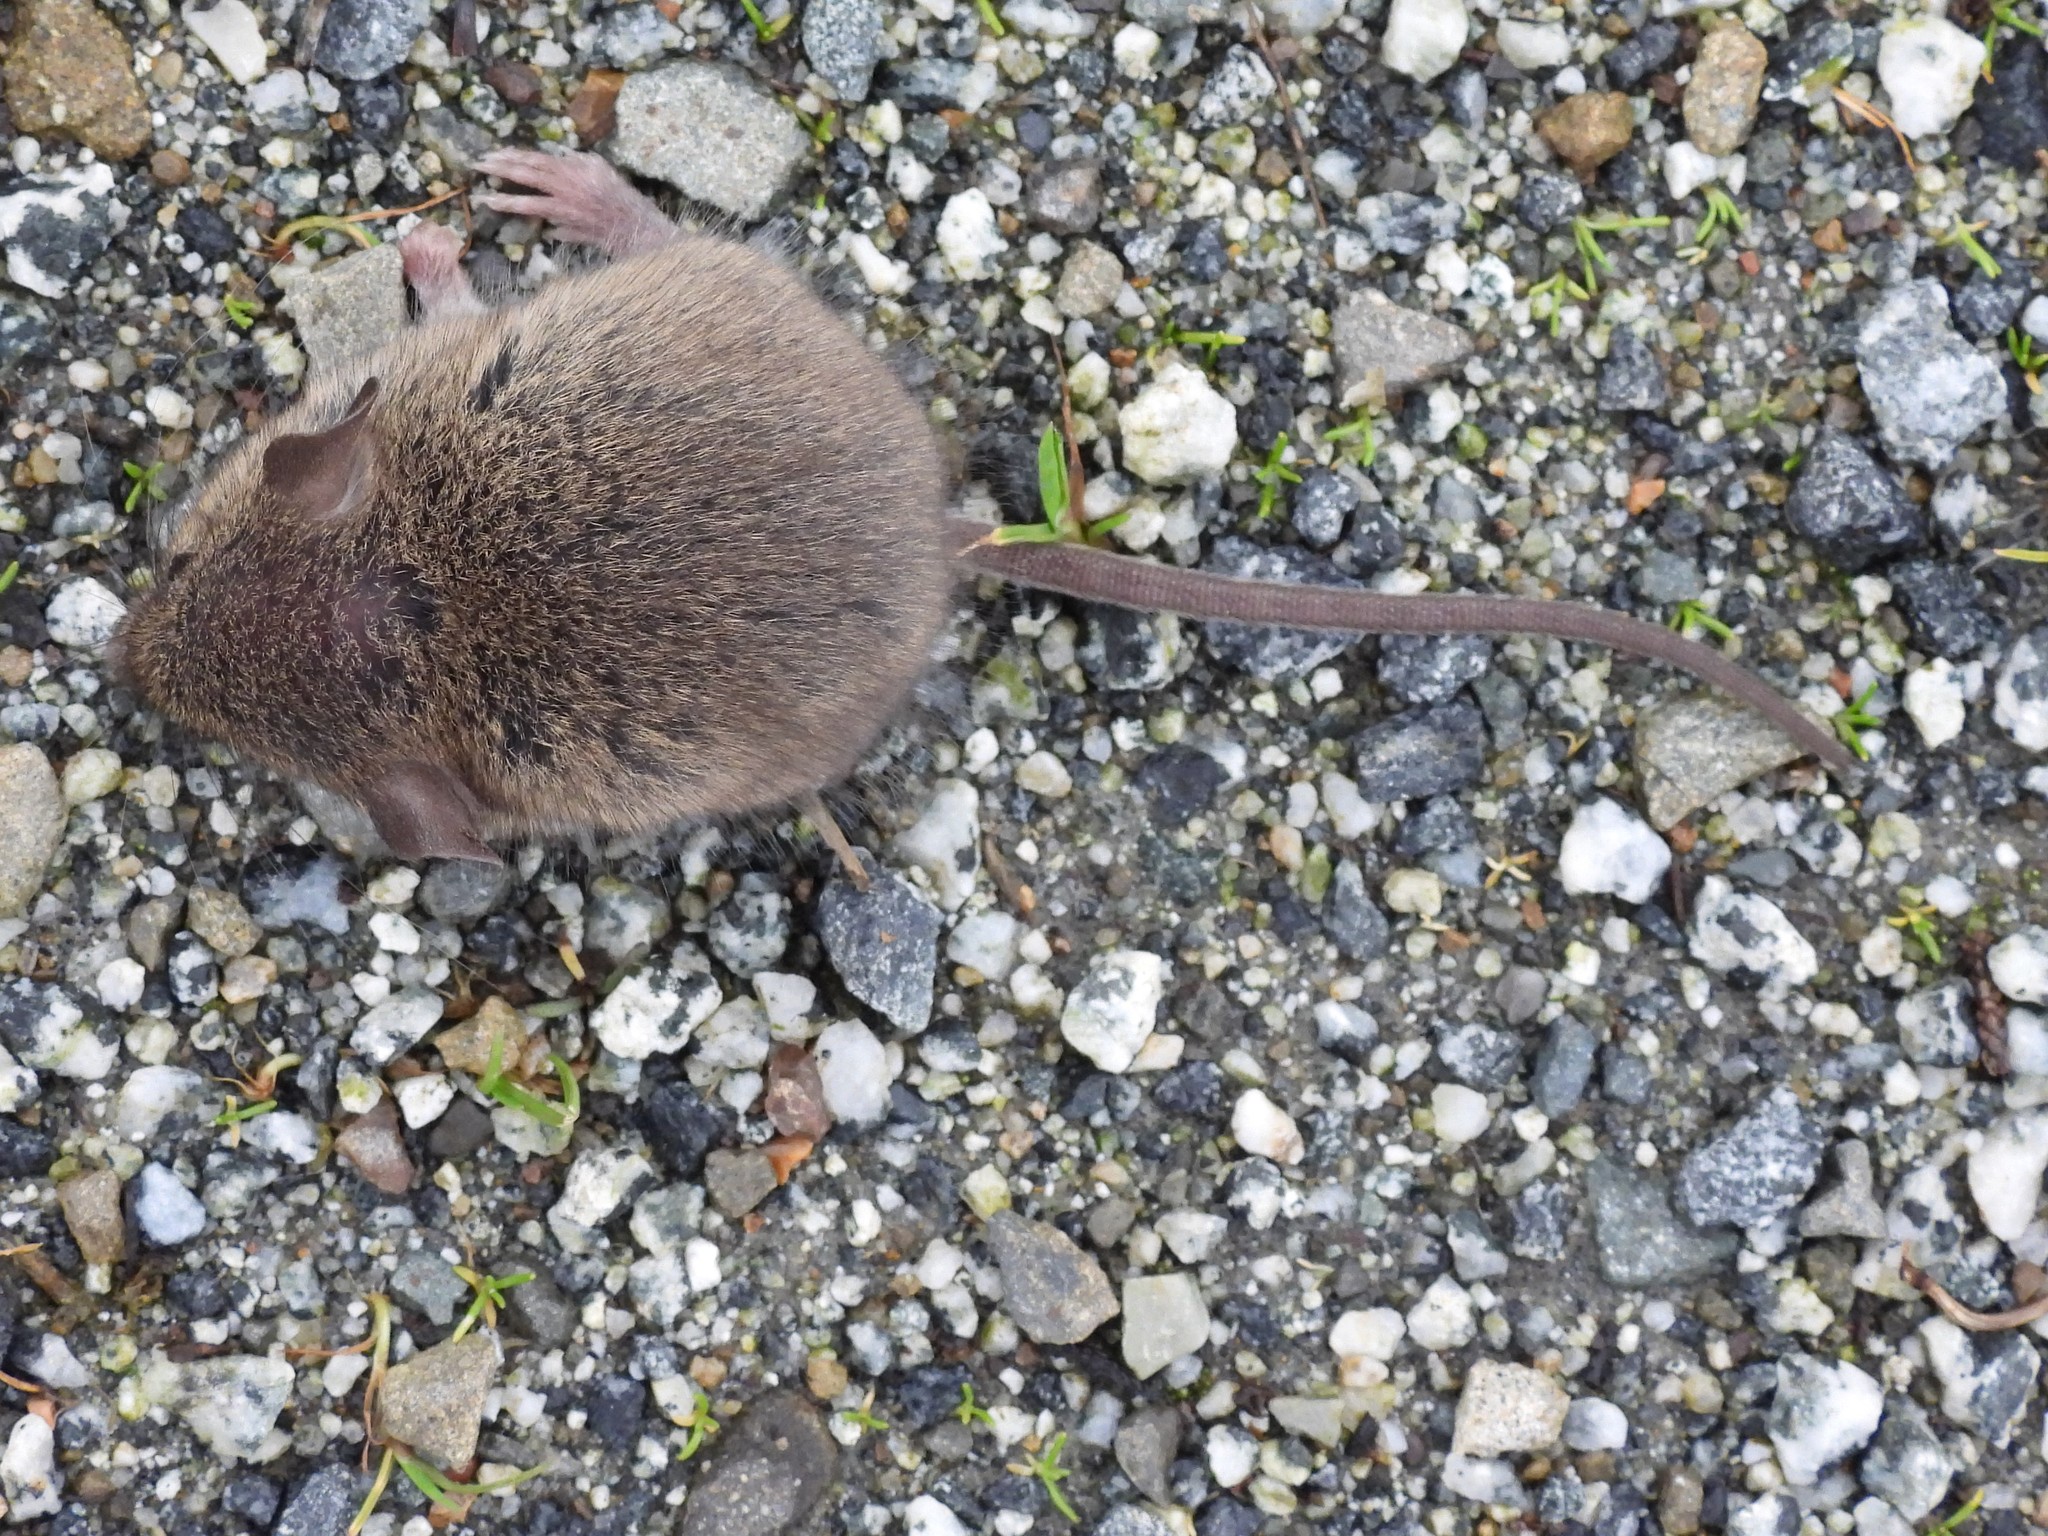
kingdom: Animalia
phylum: Chordata
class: Mammalia
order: Rodentia
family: Muridae
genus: Mus
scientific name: Mus musculus
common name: House mouse
